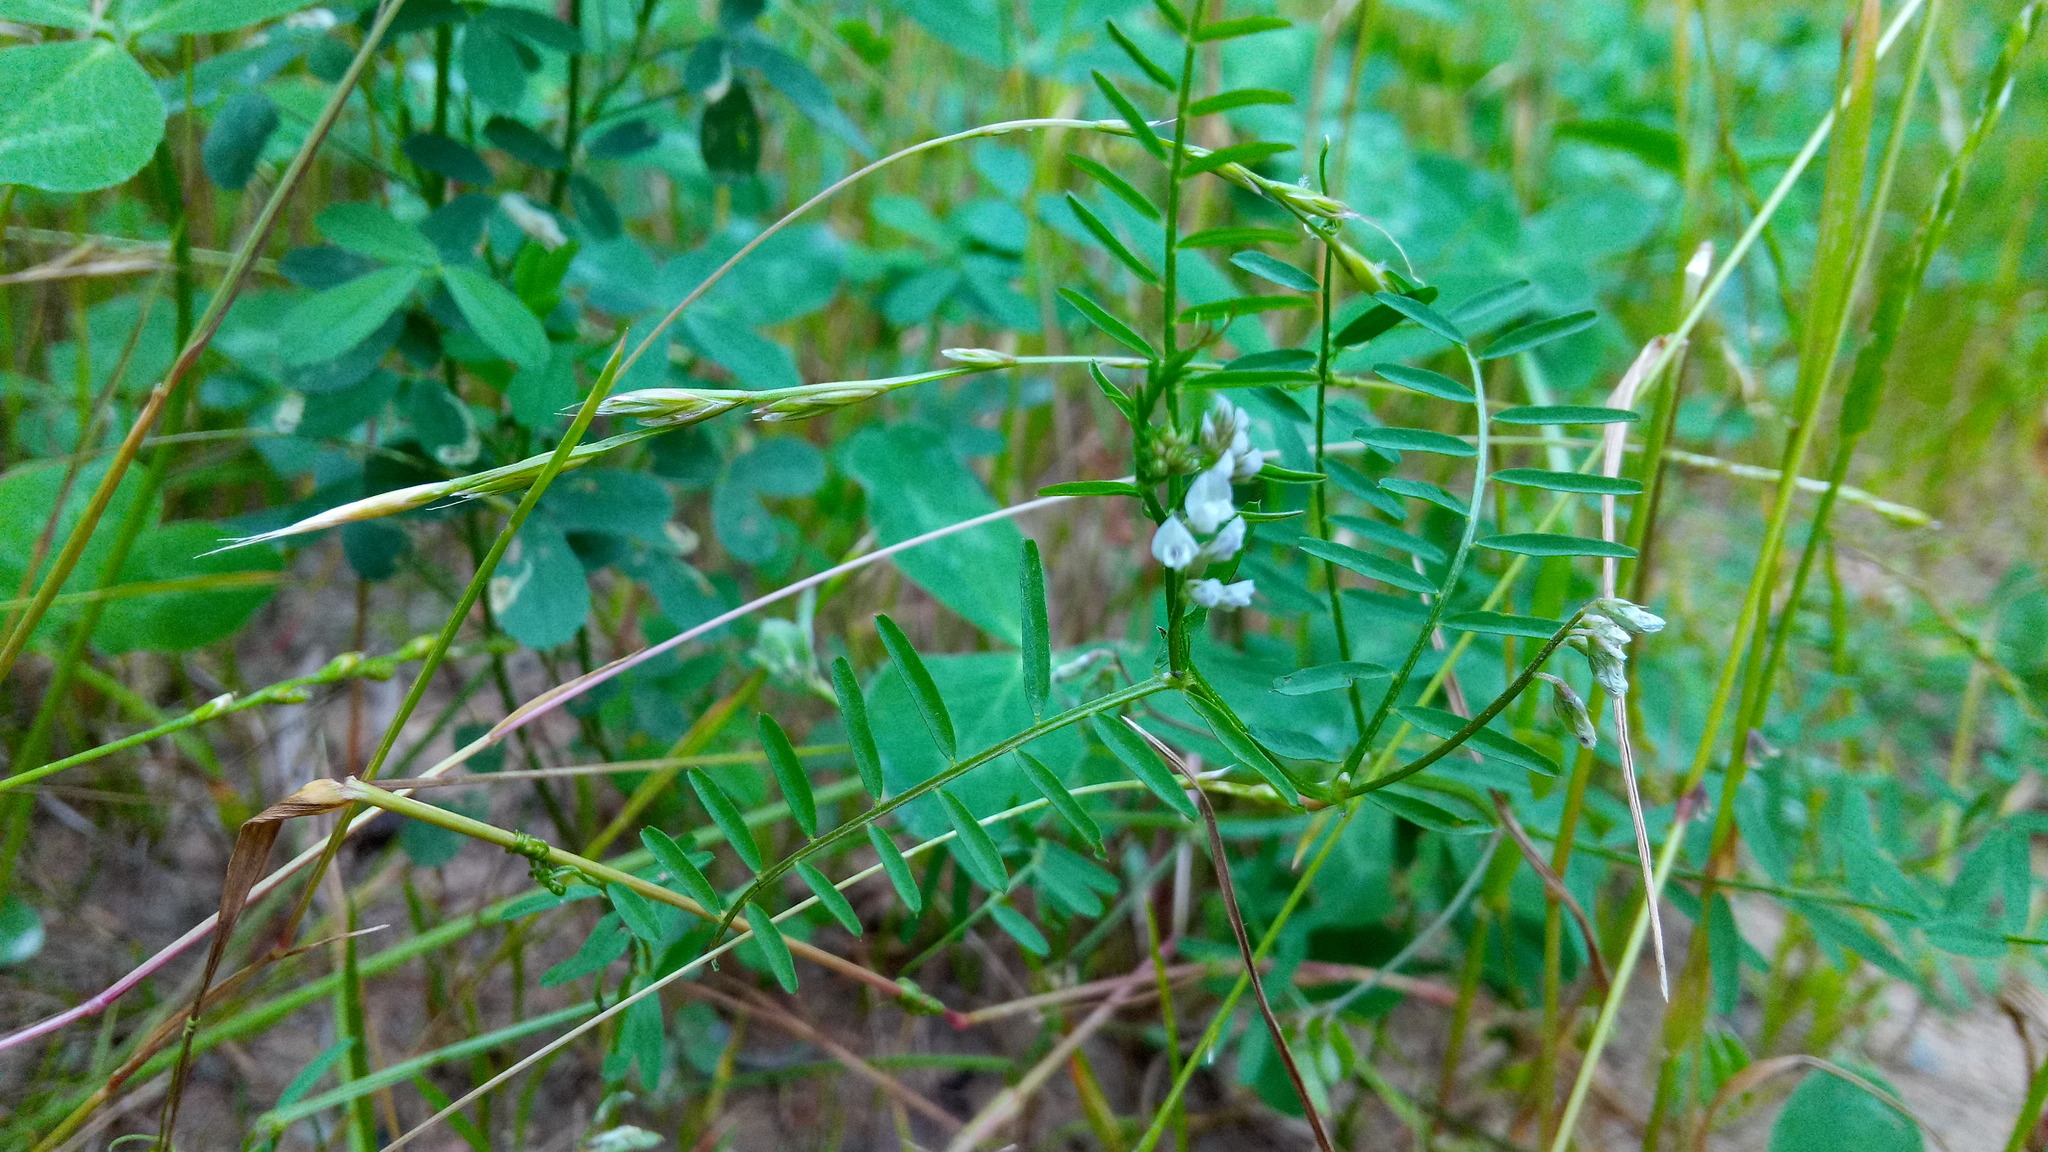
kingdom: Plantae
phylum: Tracheophyta
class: Magnoliopsida
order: Fabales
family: Fabaceae
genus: Vicia
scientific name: Vicia hirsuta
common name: Tiny vetch
